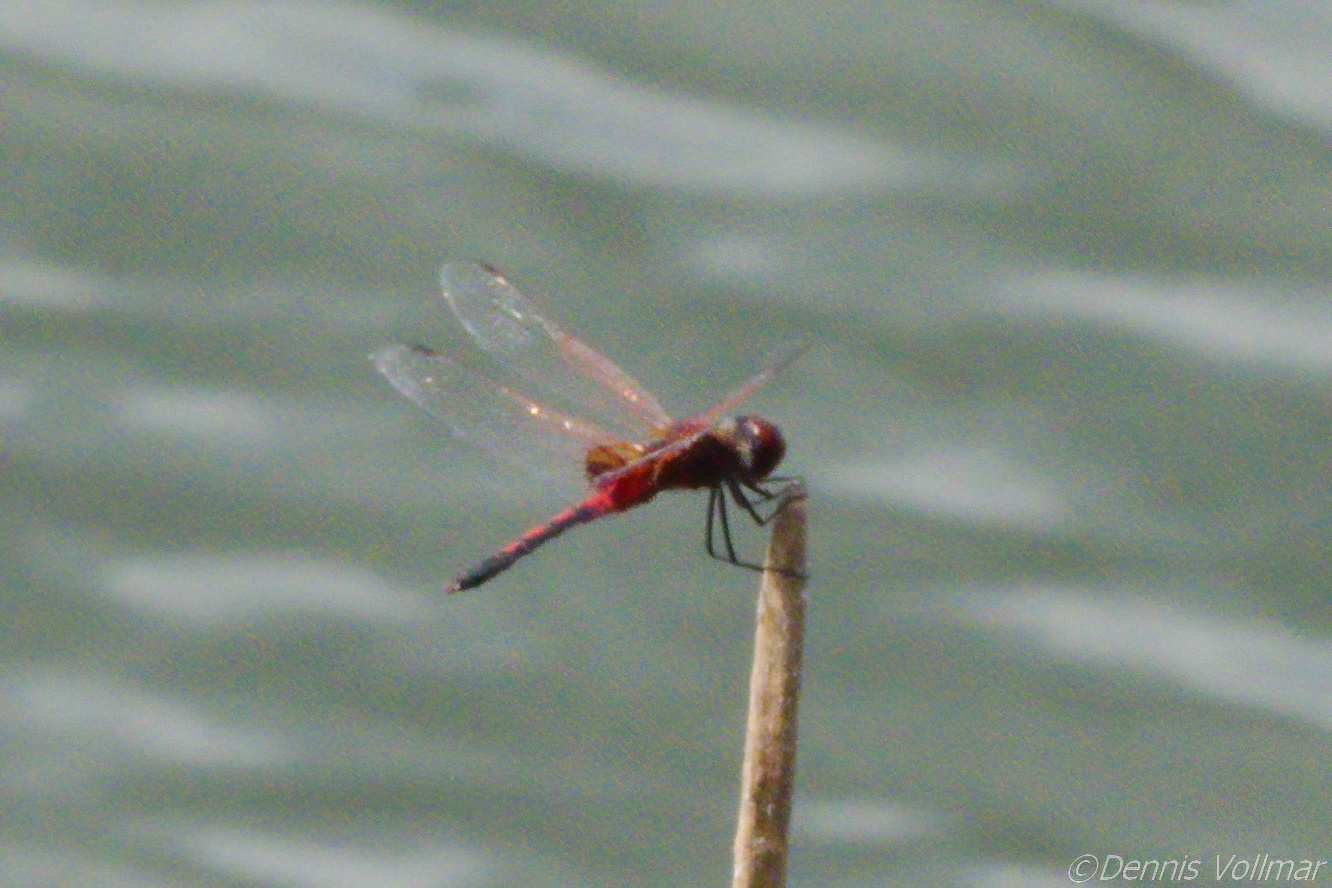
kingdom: Animalia
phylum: Arthropoda
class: Insecta
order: Odonata
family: Libellulidae
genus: Celithemis
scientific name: Celithemis bertha
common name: Red-veined pennant
